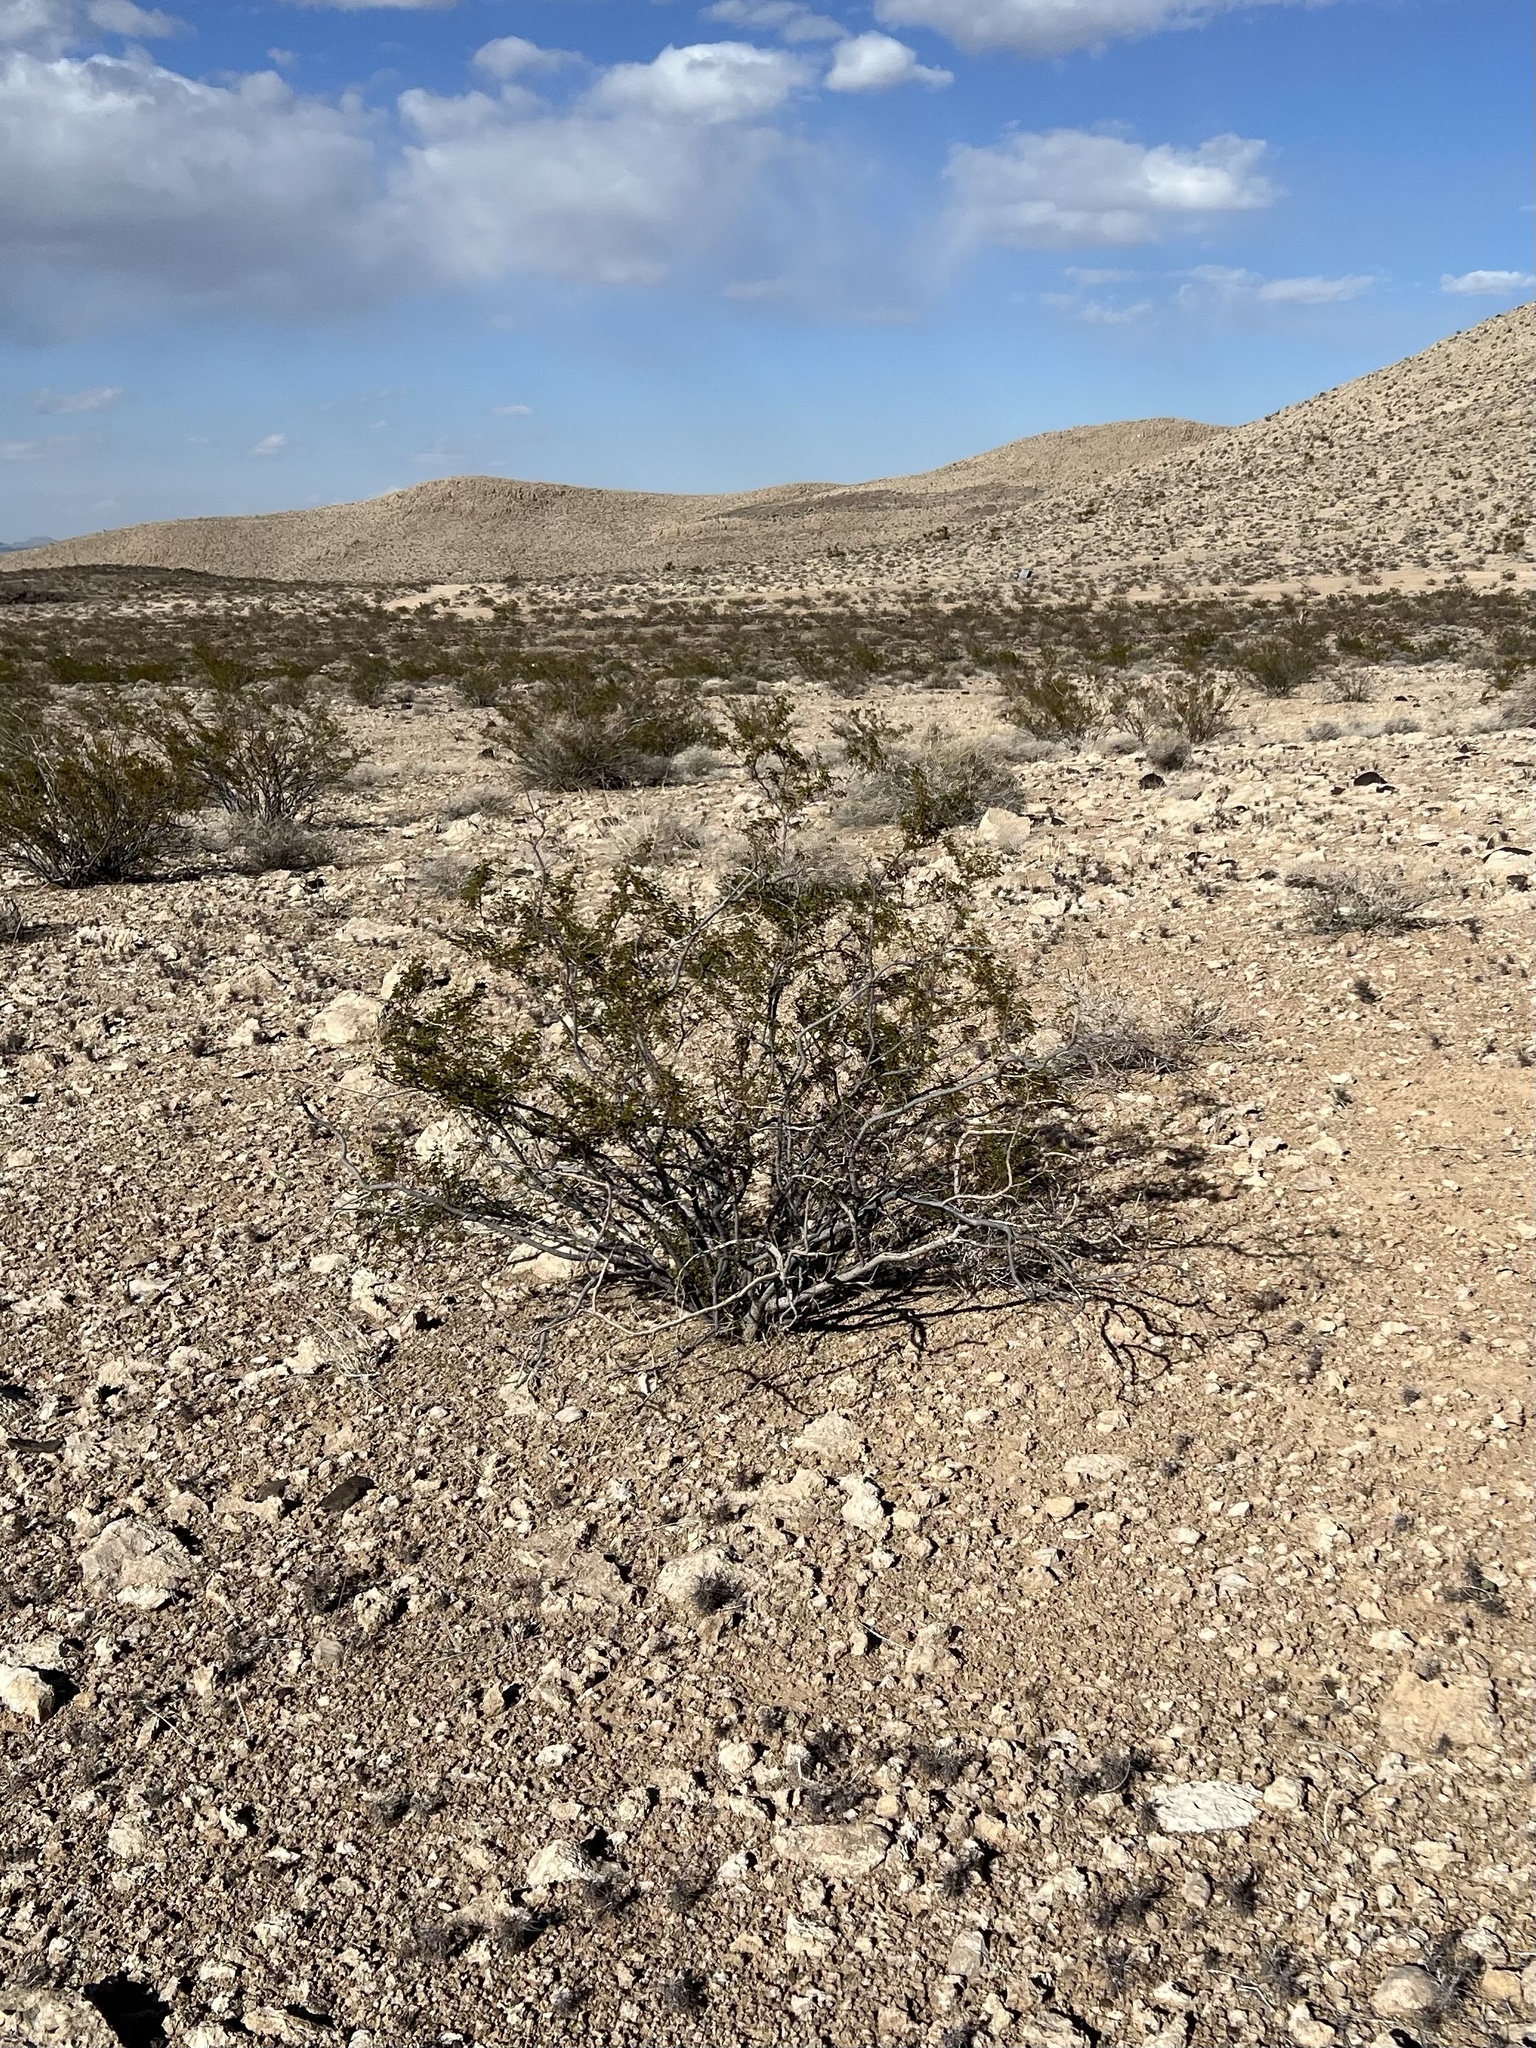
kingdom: Plantae
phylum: Tracheophyta
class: Magnoliopsida
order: Zygophyllales
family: Zygophyllaceae
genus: Larrea
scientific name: Larrea tridentata
